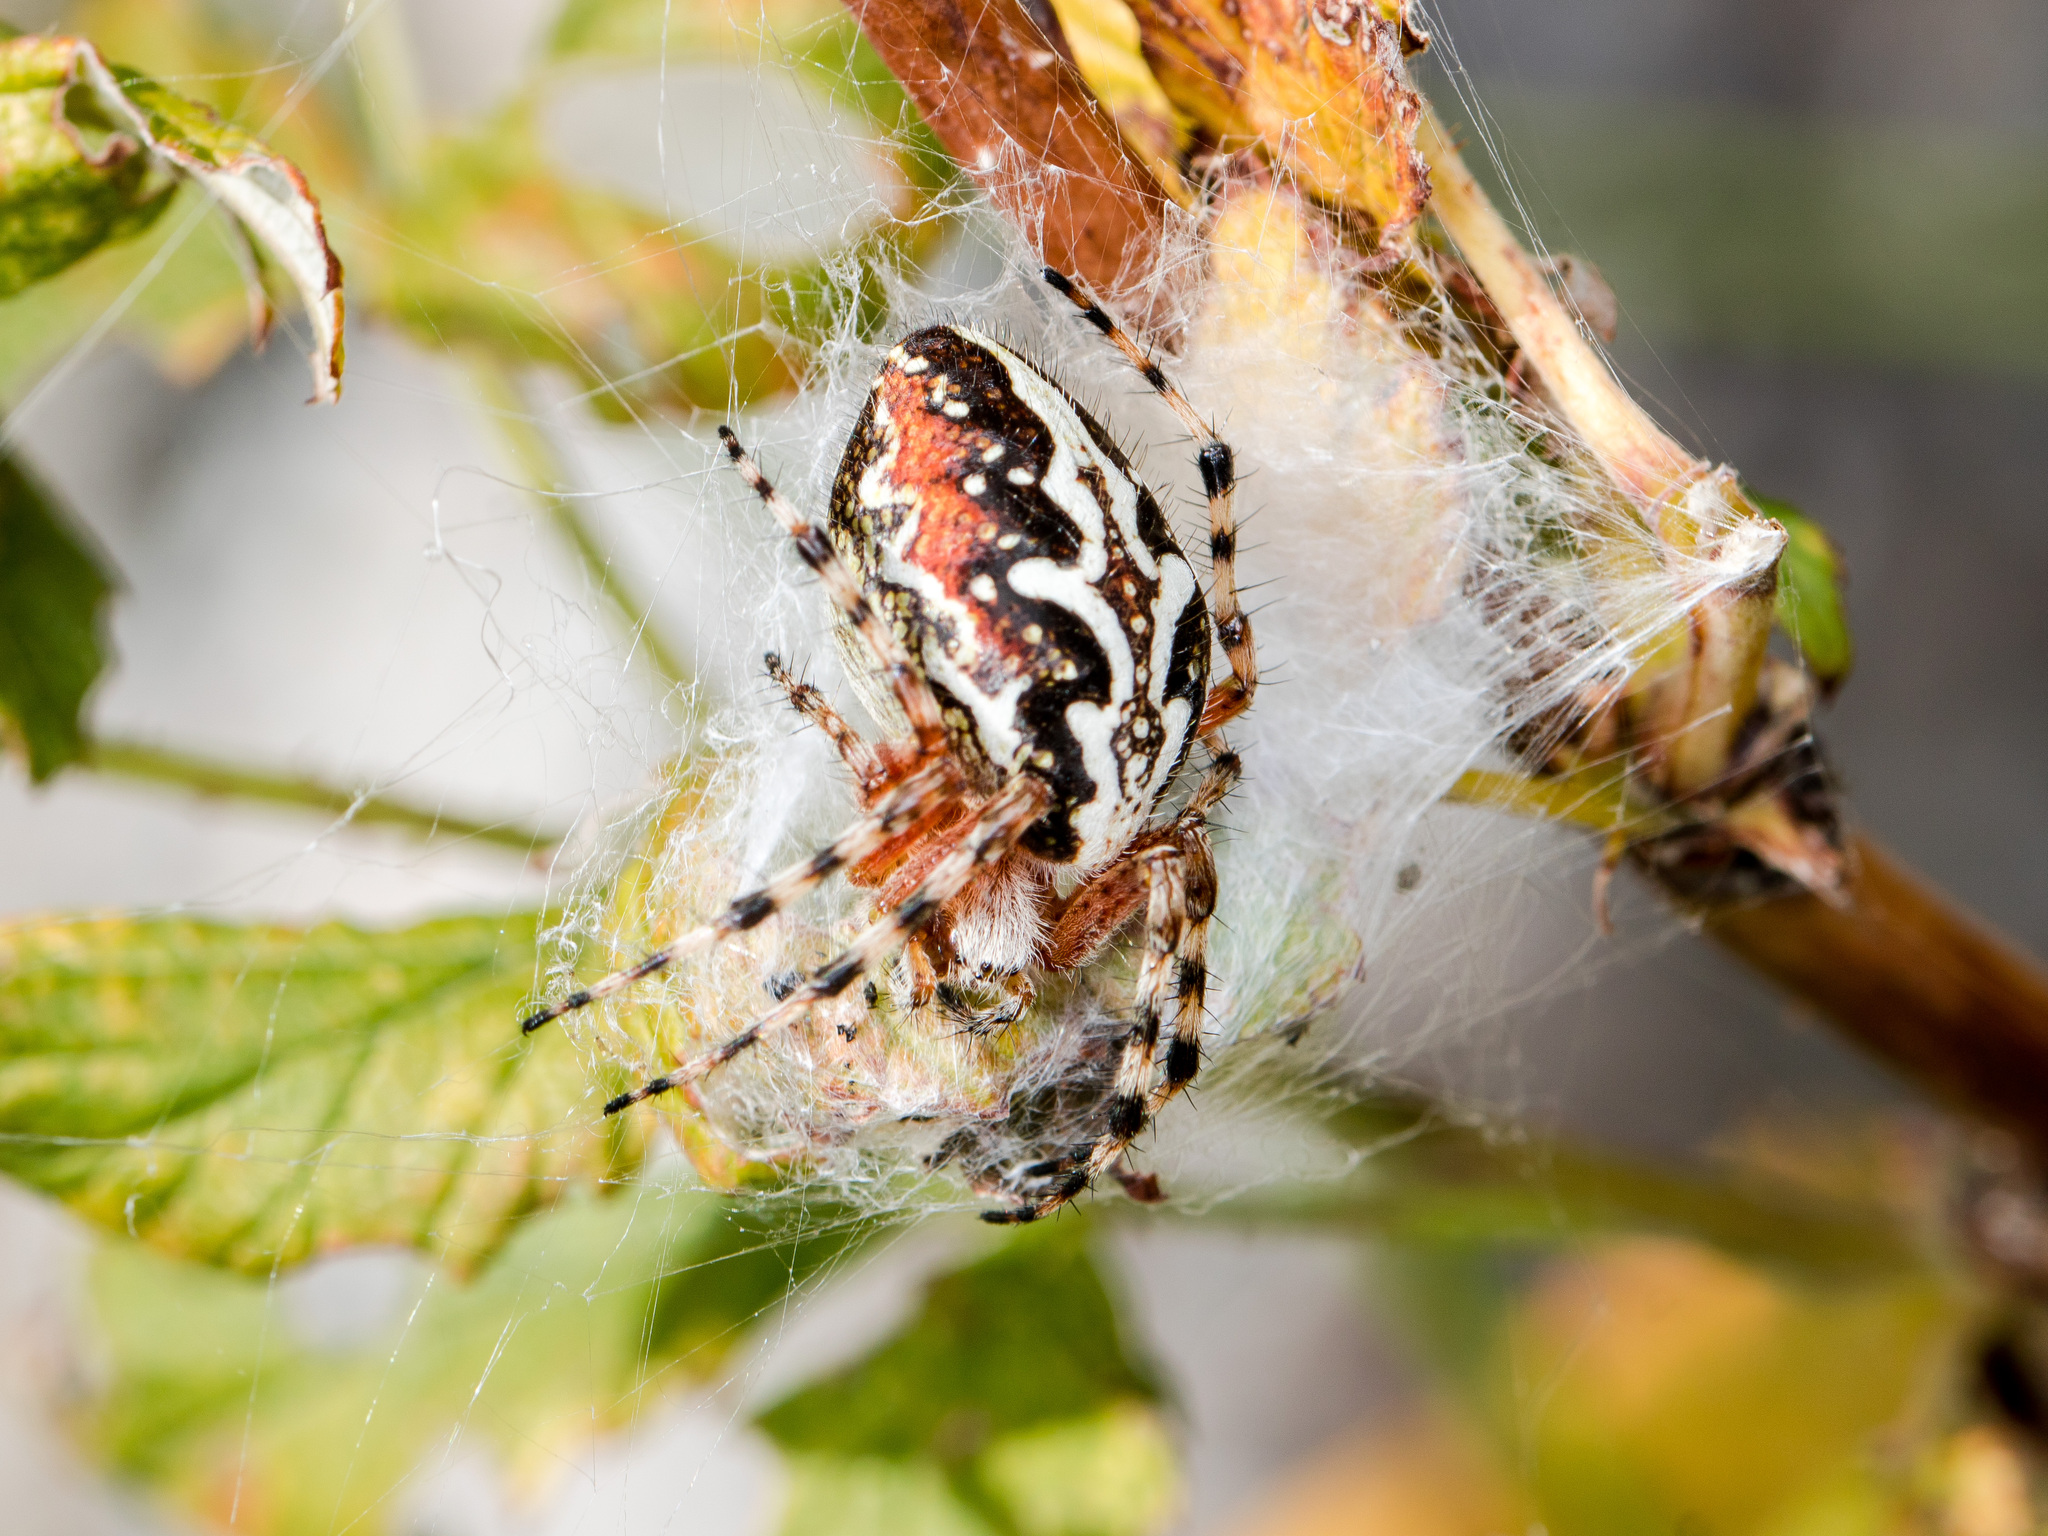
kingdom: Animalia
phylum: Arthropoda
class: Arachnida
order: Araneae
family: Araneidae
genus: Aculepeira
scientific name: Aculepeira packardi
